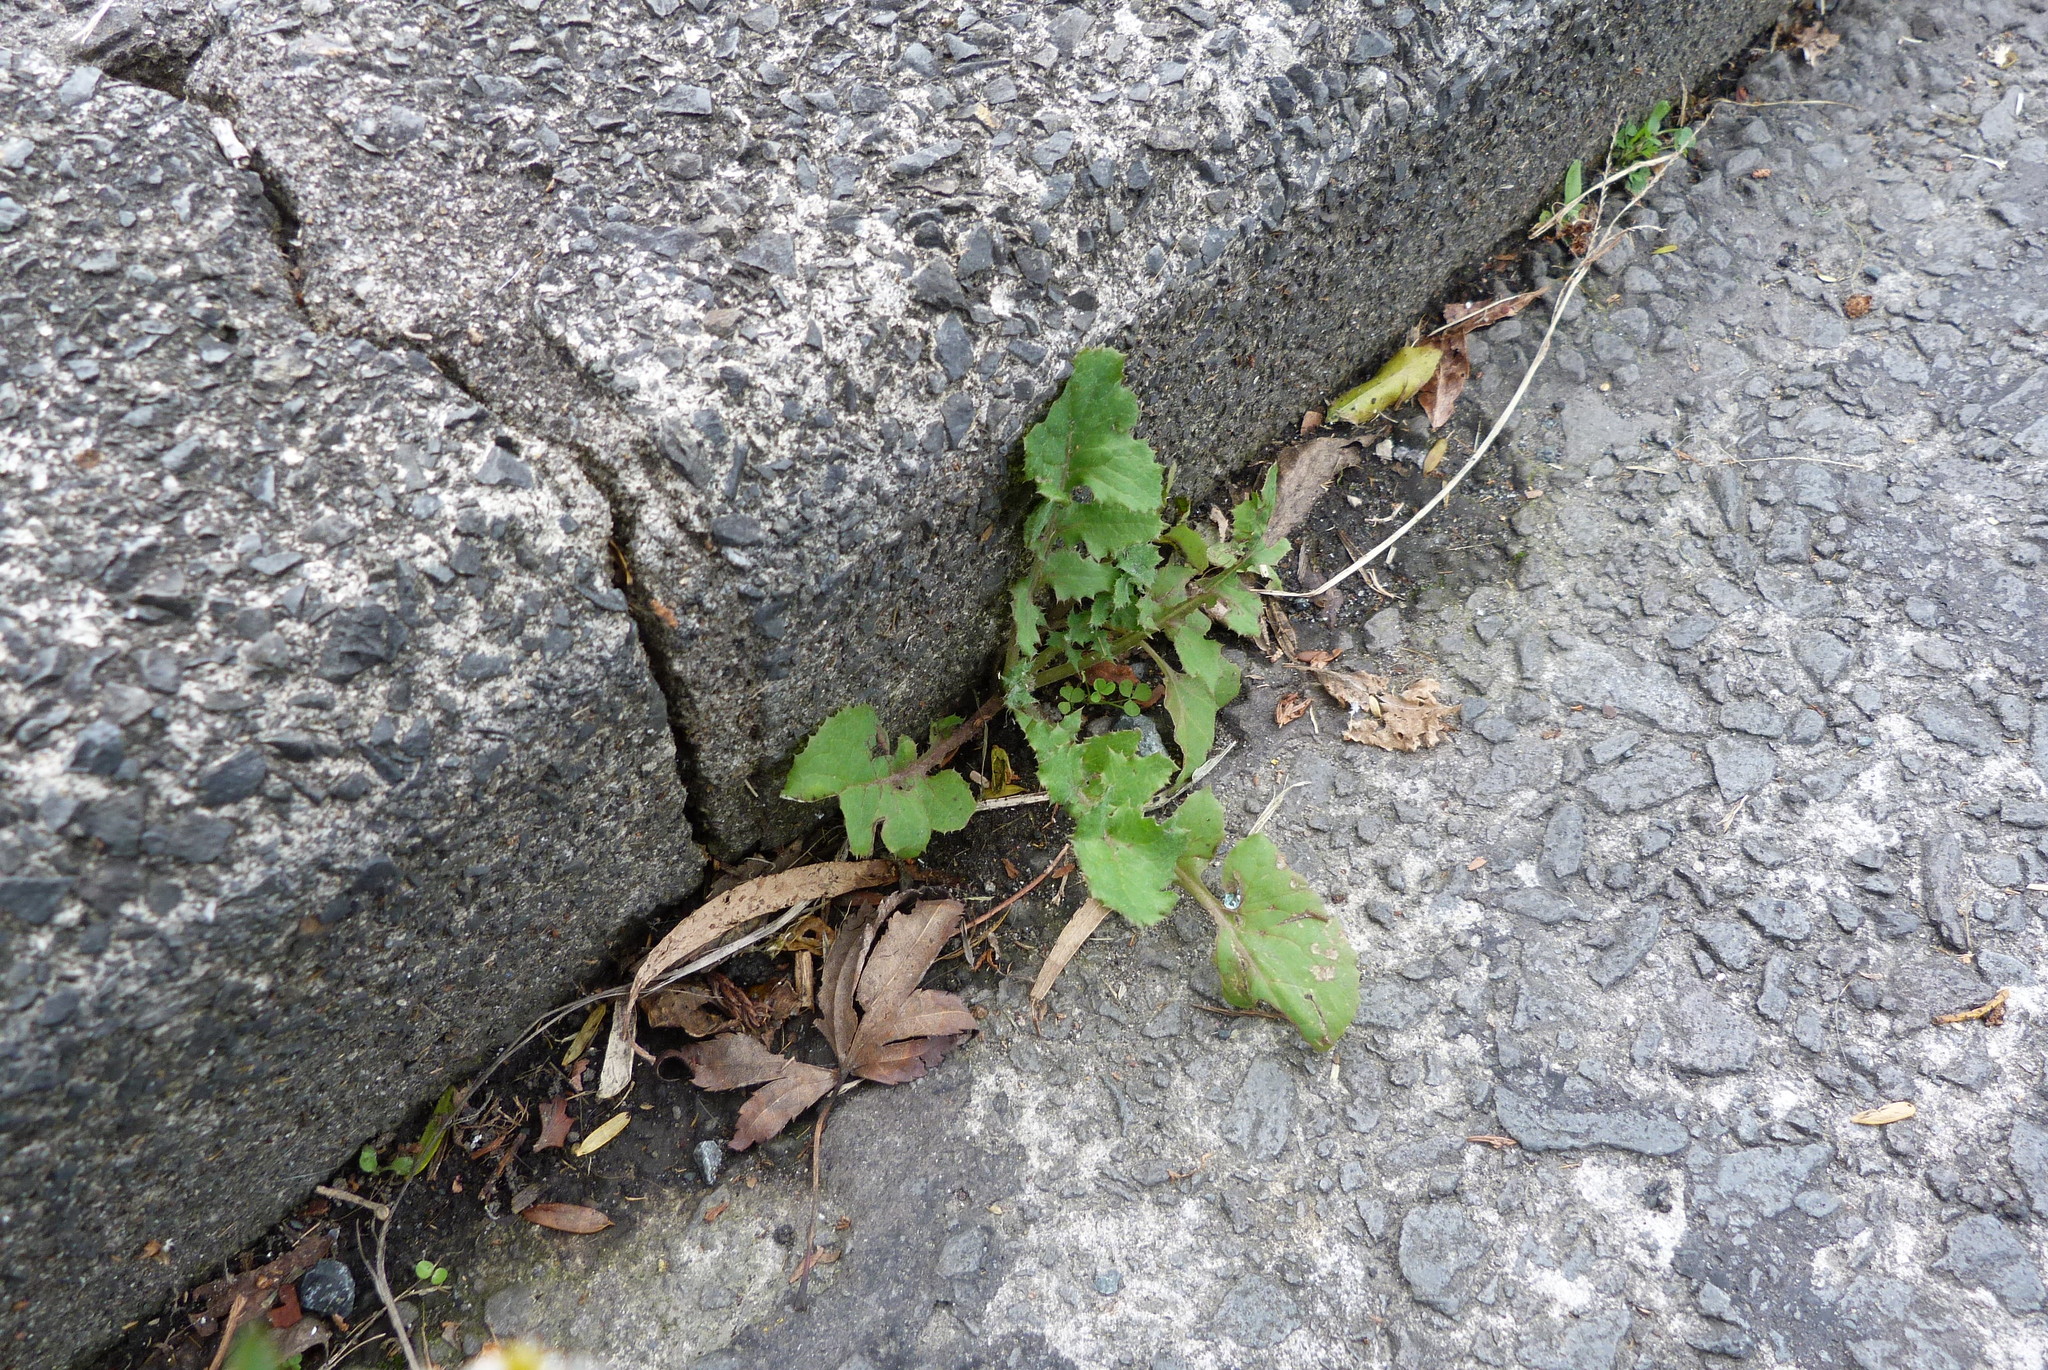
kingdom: Plantae
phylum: Tracheophyta
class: Magnoliopsida
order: Asterales
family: Asteraceae
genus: Sonchus
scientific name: Sonchus oleraceus
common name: Common sowthistle
